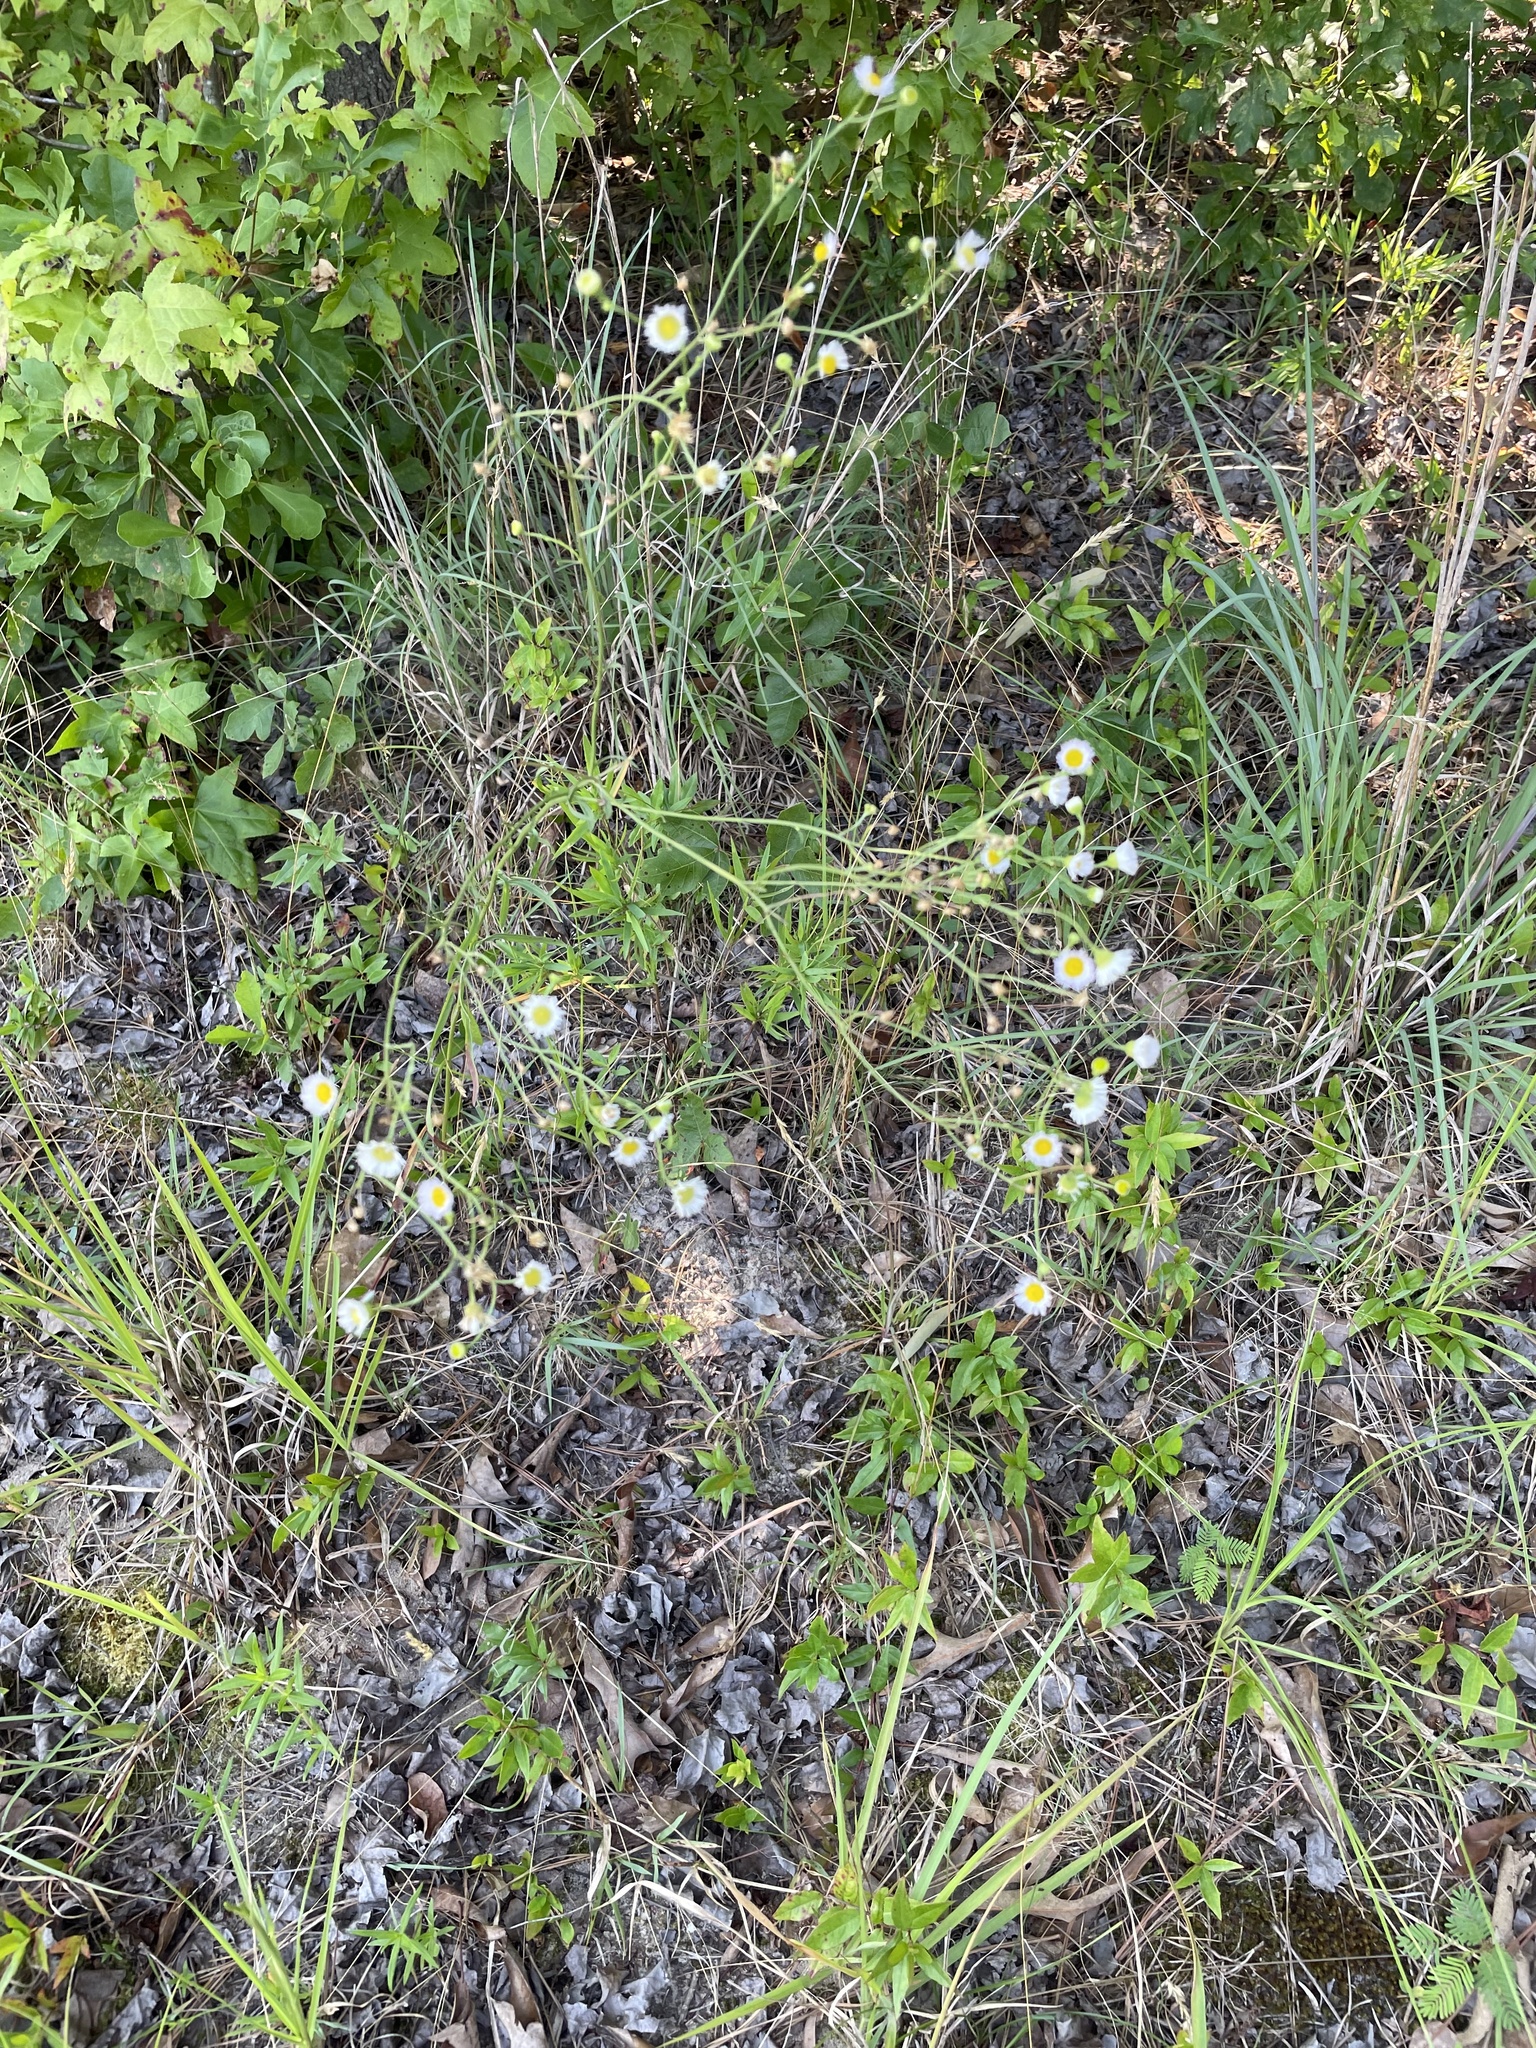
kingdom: Plantae
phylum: Tracheophyta
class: Magnoliopsida
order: Asterales
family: Asteraceae
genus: Erigeron
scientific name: Erigeron strigosus
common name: Common eastern fleabane
